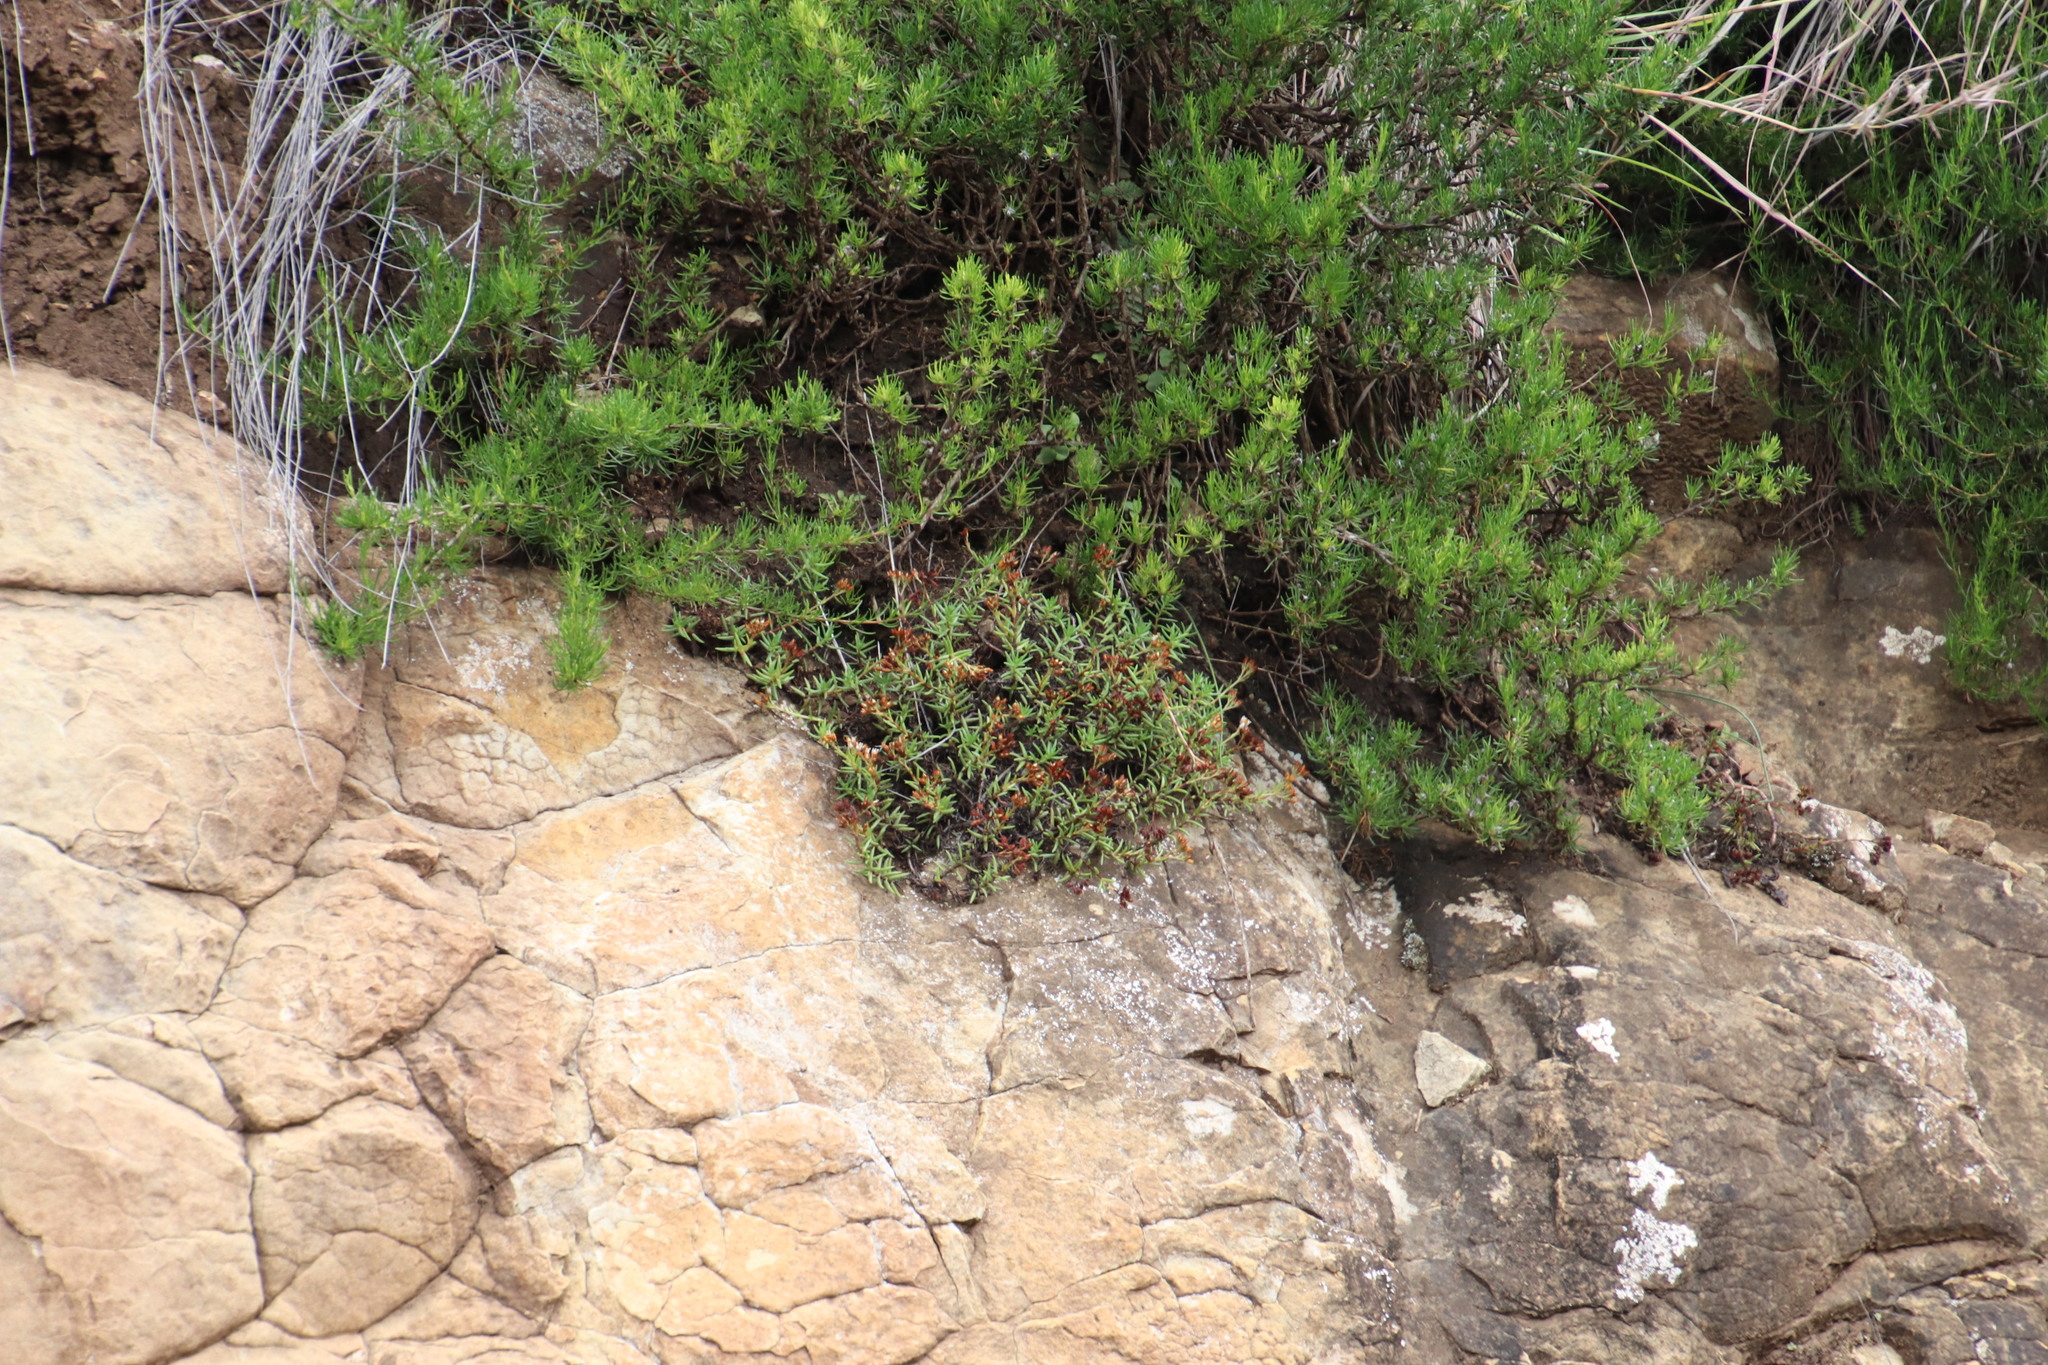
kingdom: Plantae
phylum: Tracheophyta
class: Magnoliopsida
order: Saxifragales
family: Crassulaceae
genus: Crassula
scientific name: Crassula dependens
